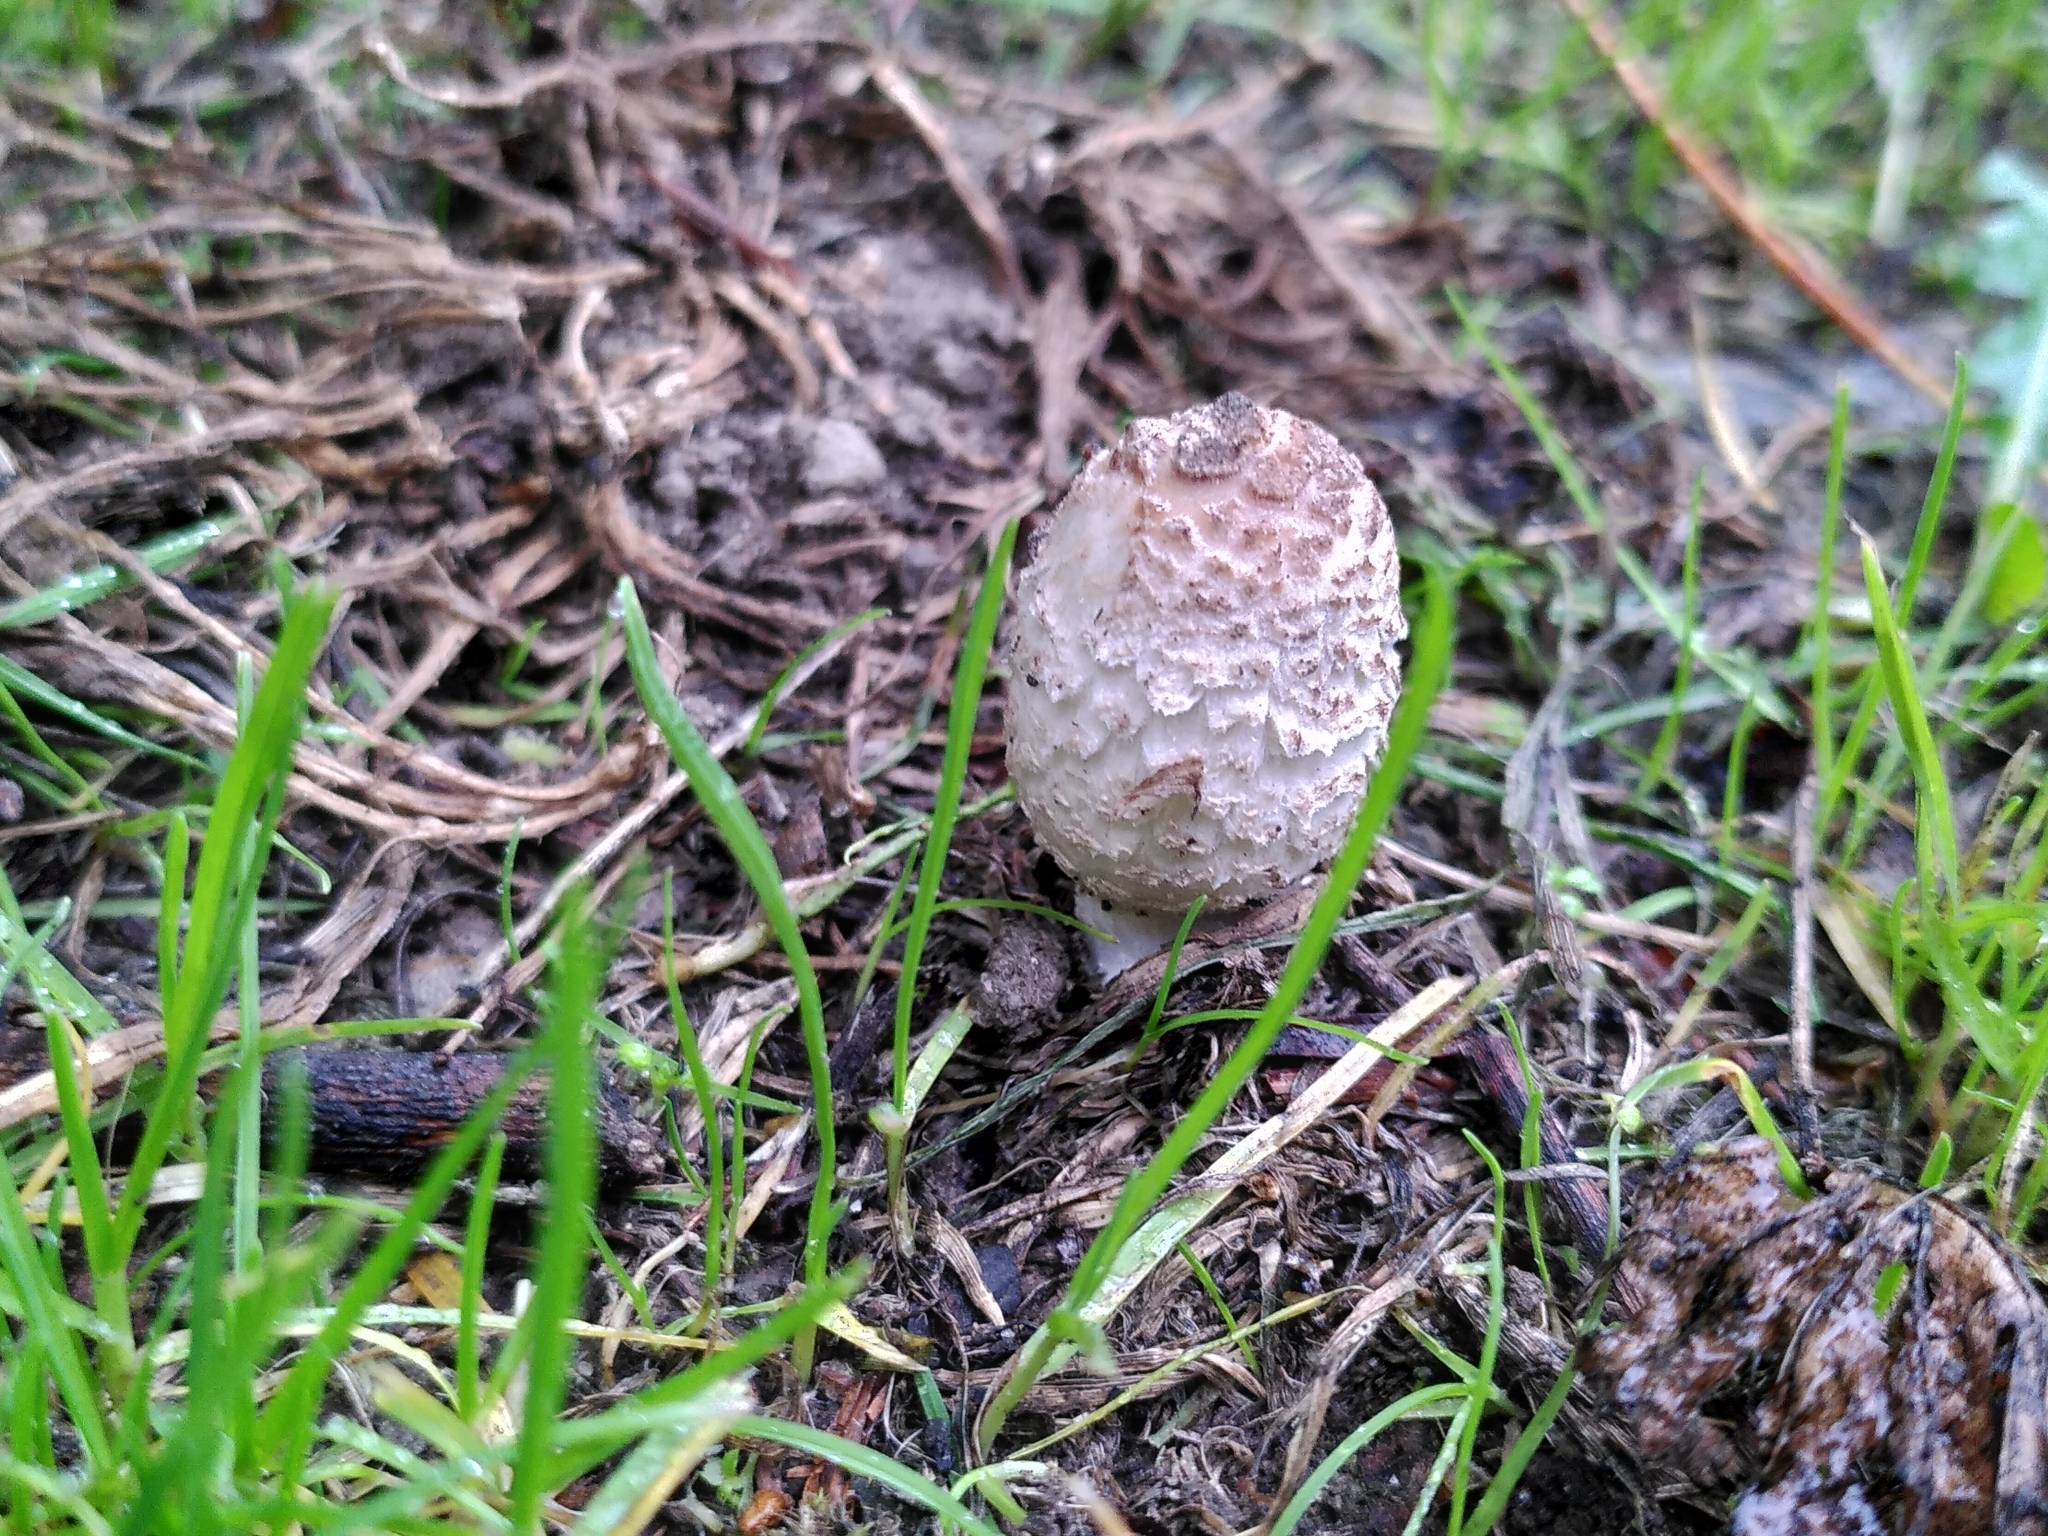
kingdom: Fungi
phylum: Basidiomycota
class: Agaricomycetes
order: Agaricales
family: Agaricaceae
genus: Coprinus
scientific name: Coprinus comatus
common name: Lawyer's wig
